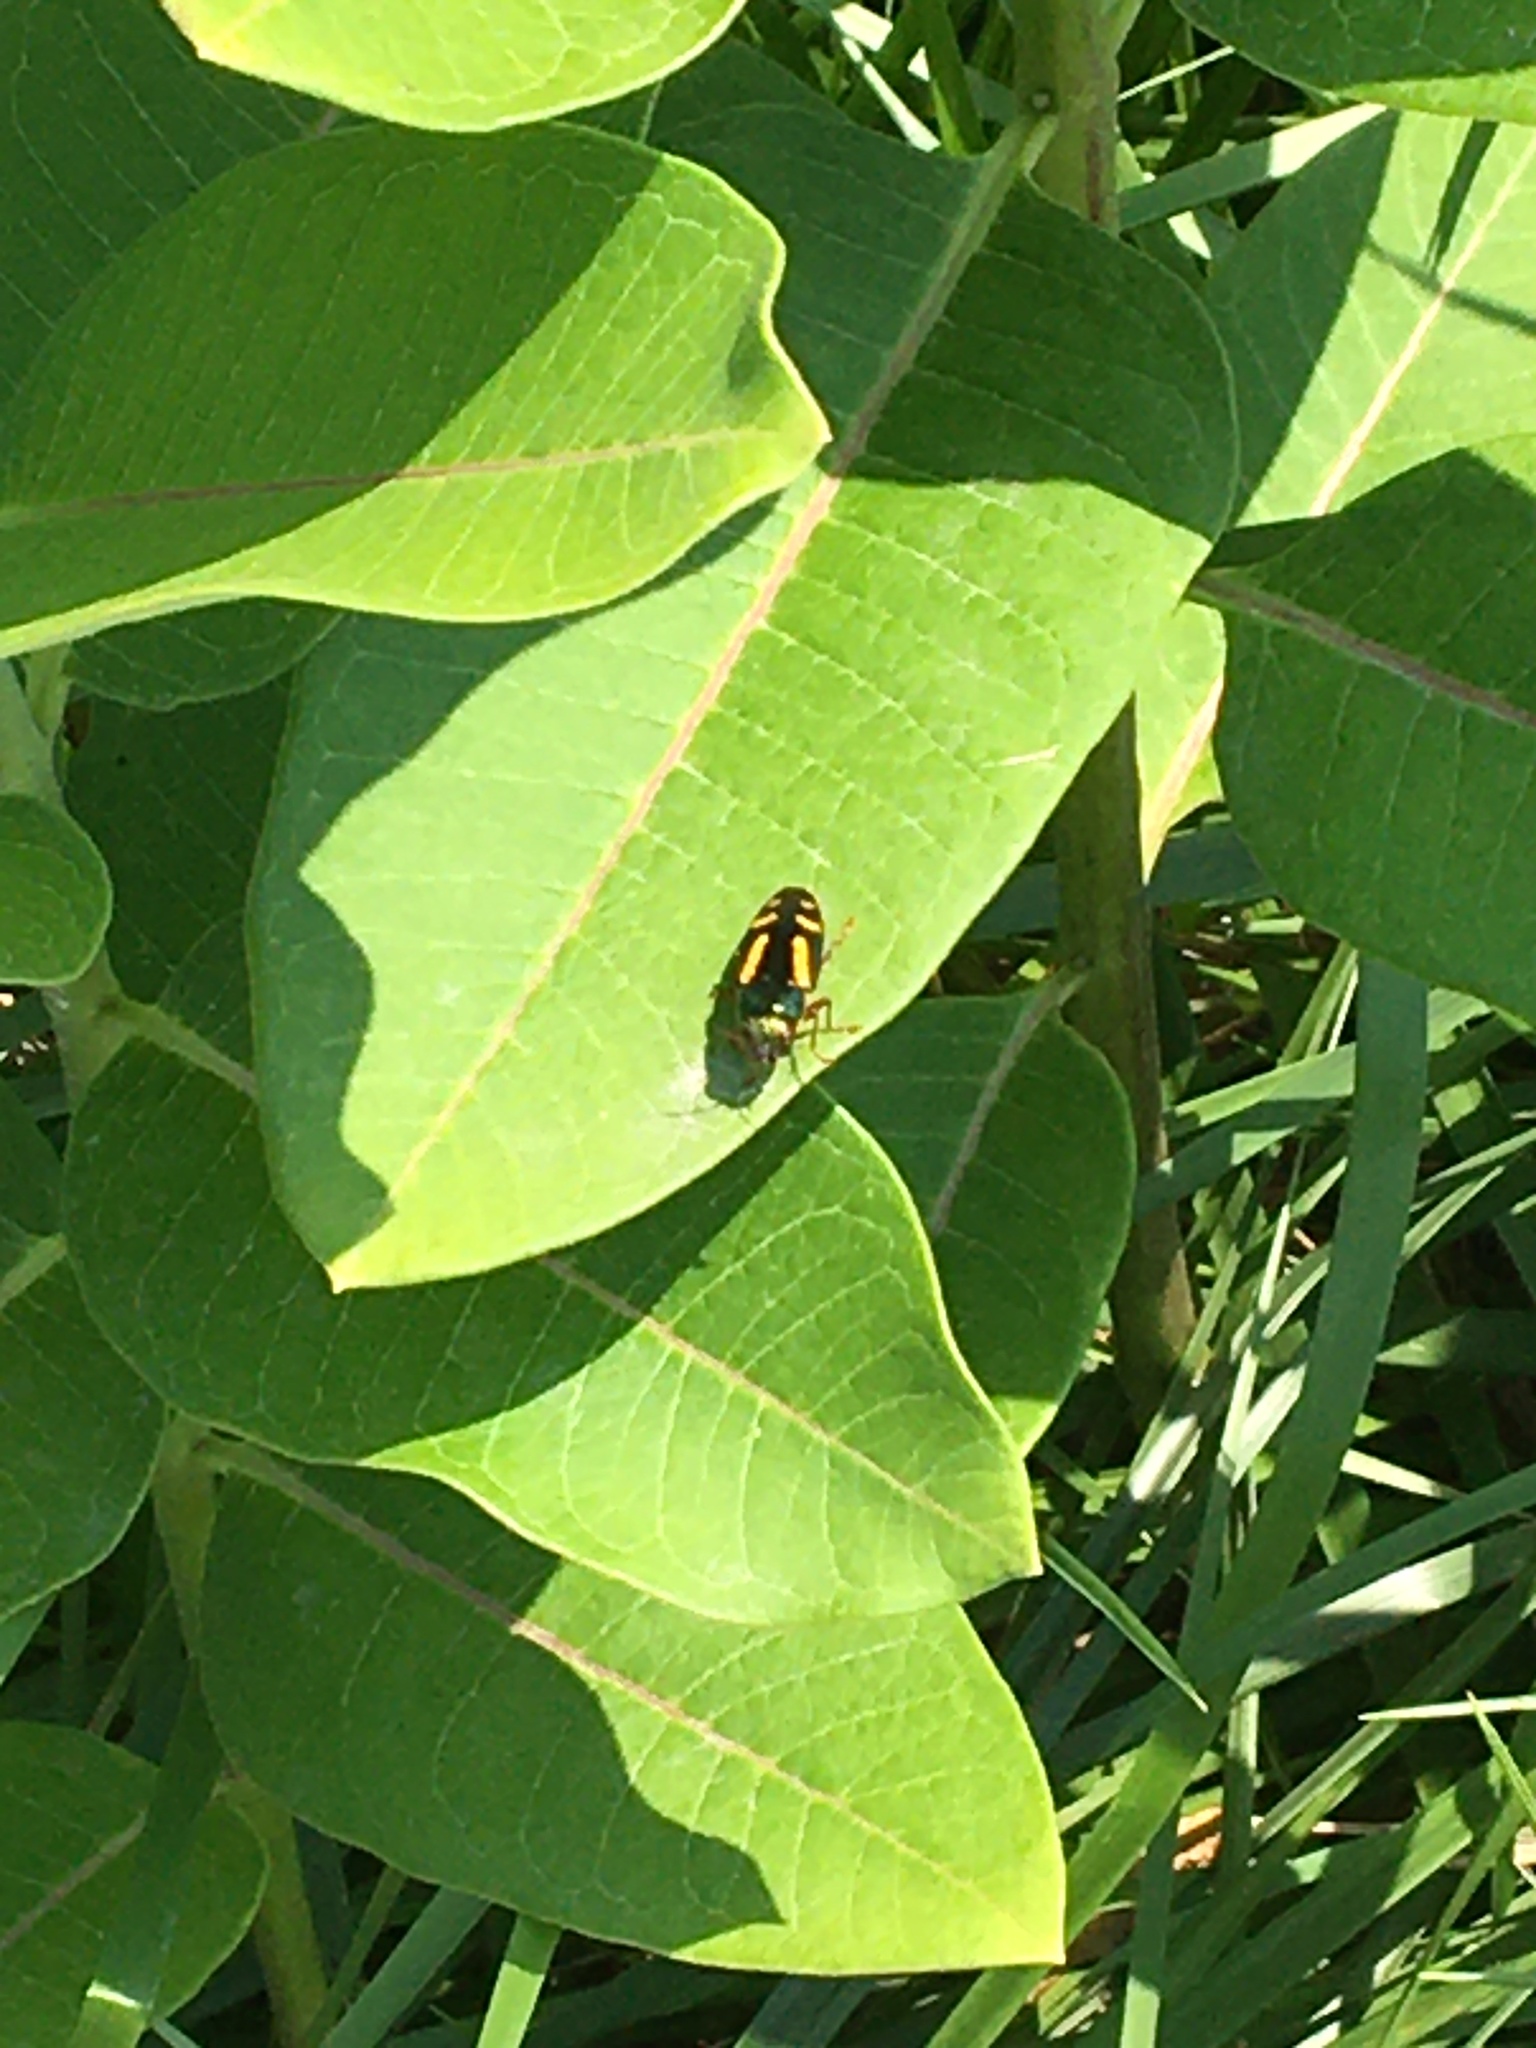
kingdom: Animalia
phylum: Arthropoda
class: Insecta
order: Coleoptera
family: Buprestidae
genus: Buprestis
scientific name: Buprestis rufipes
